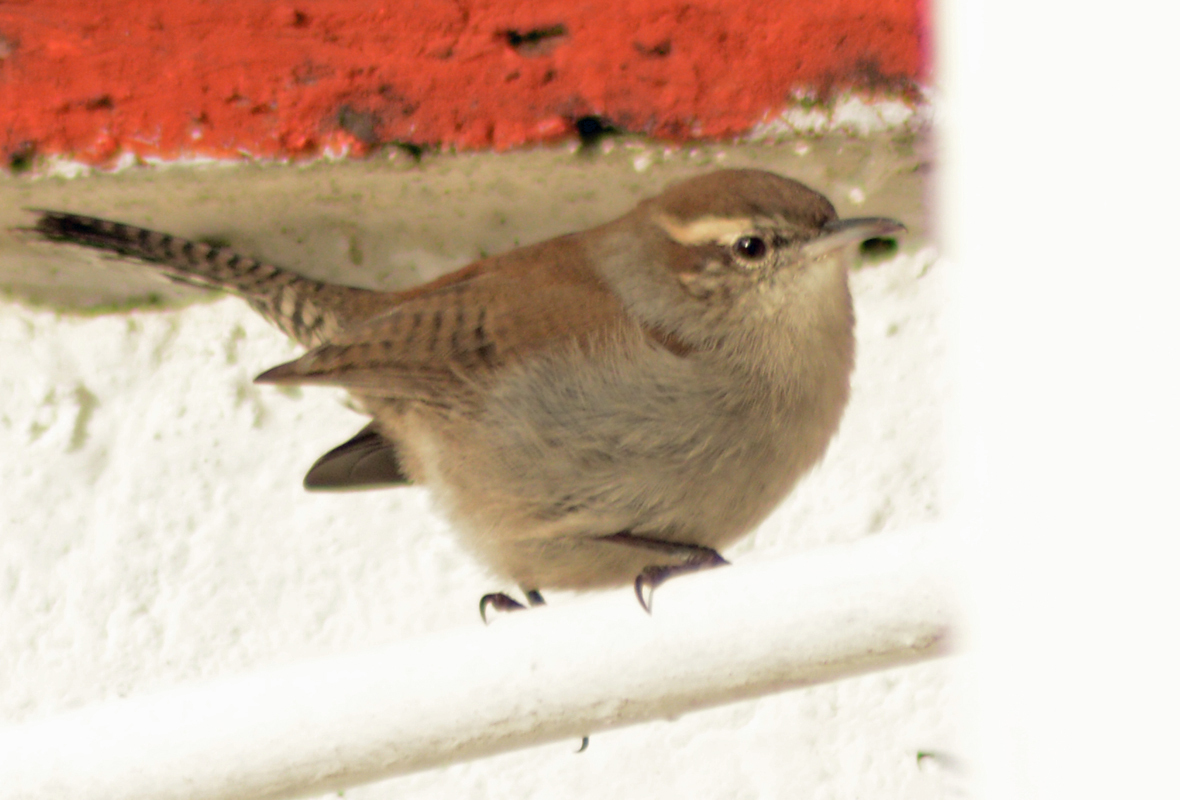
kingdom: Animalia
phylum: Chordata
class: Aves
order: Passeriformes
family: Troglodytidae
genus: Thryomanes
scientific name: Thryomanes bewickii
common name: Bewick's wren
